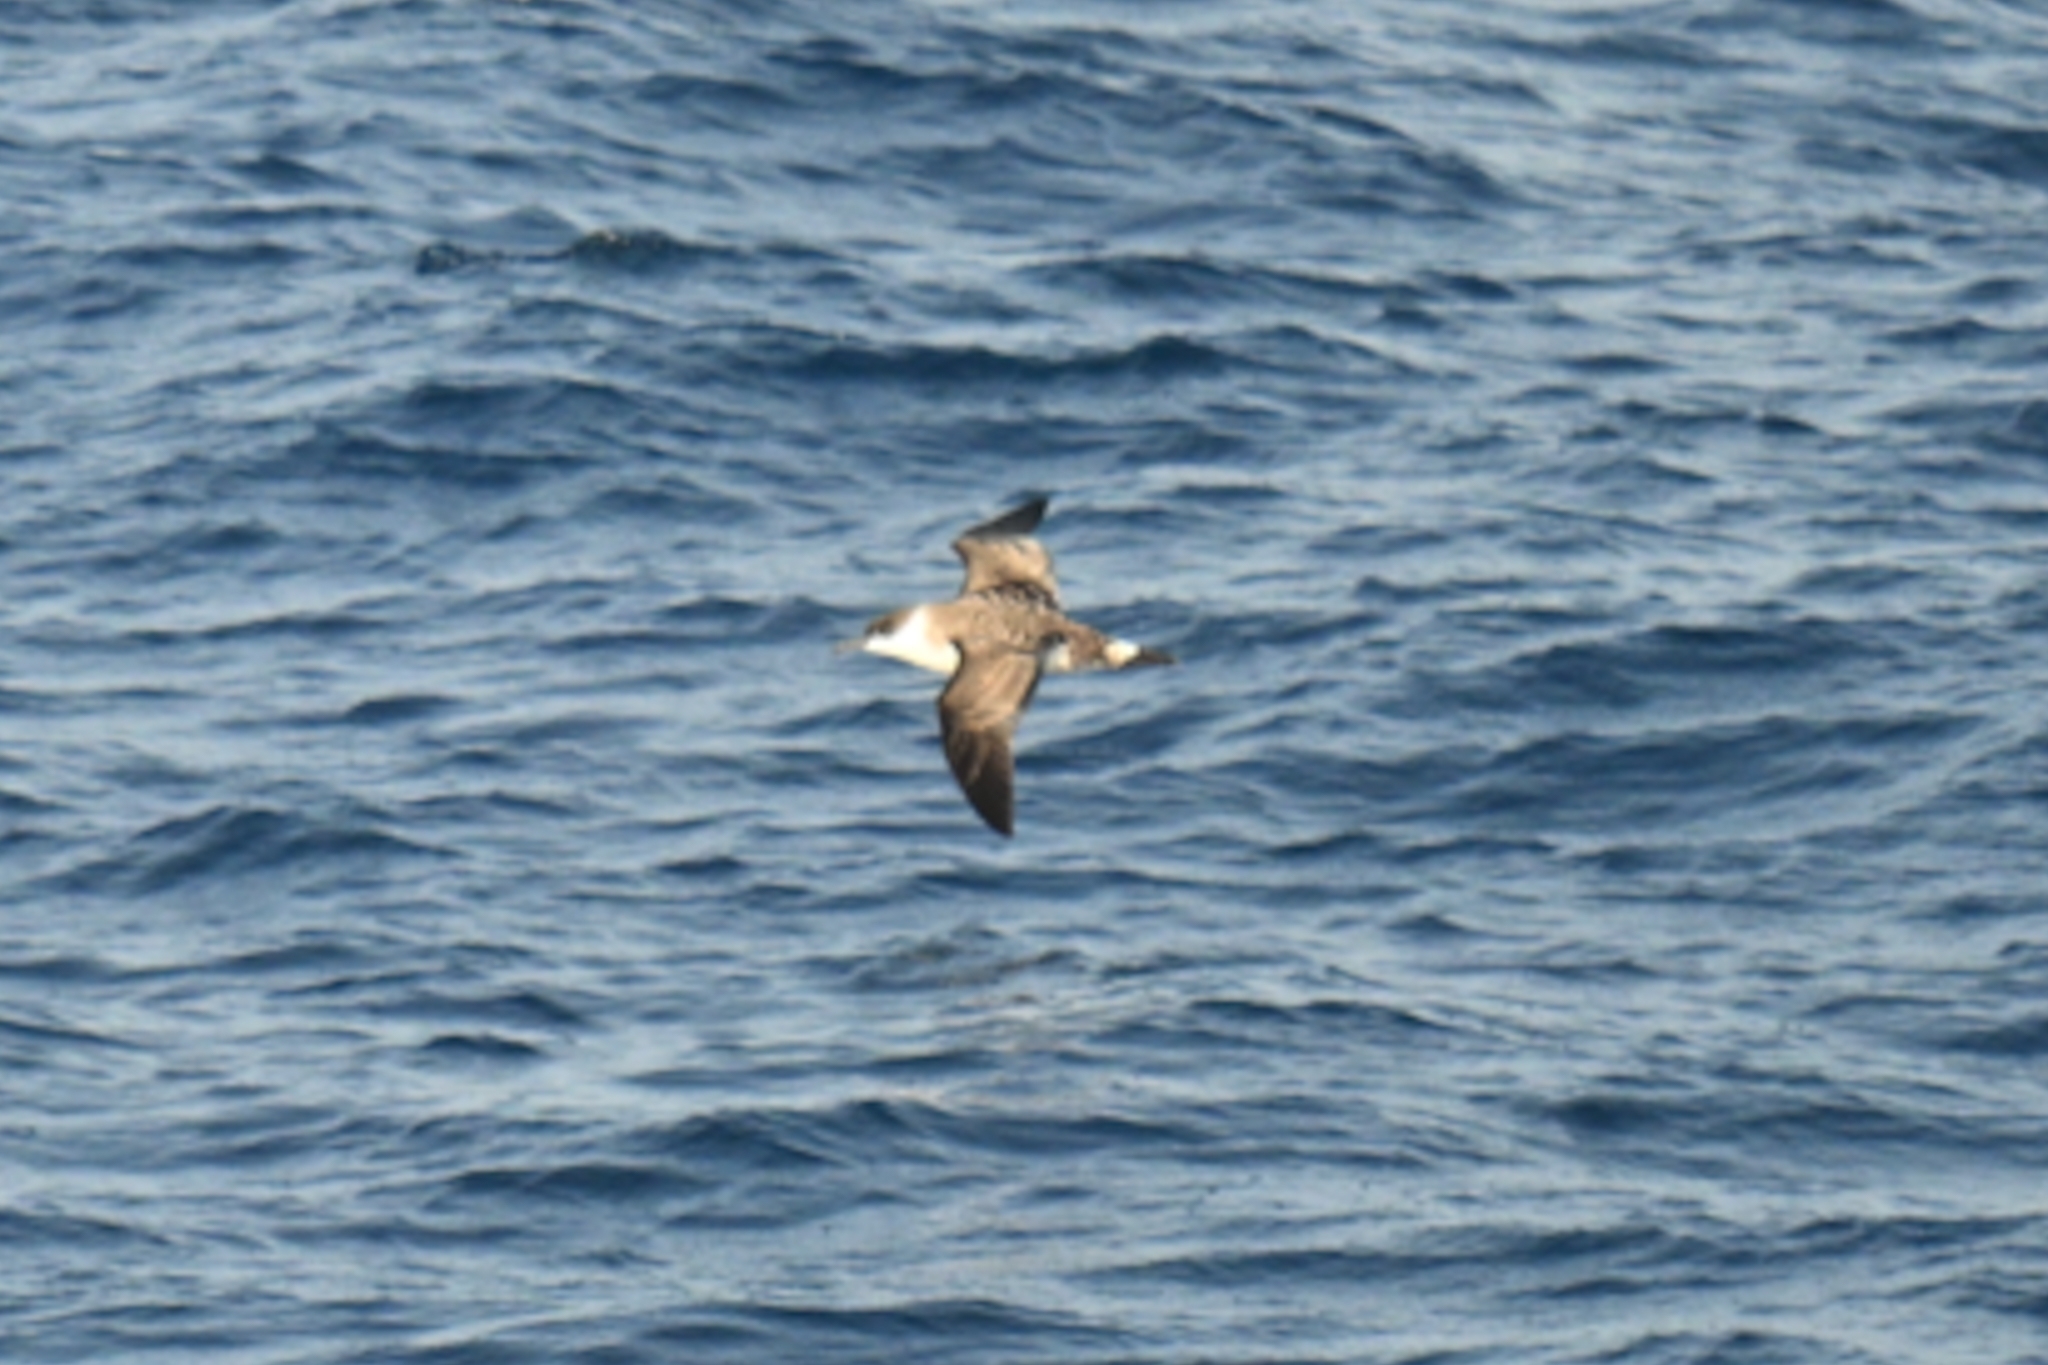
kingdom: Animalia
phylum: Chordata
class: Aves
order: Procellariiformes
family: Procellariidae
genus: Puffinus
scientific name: Puffinus gravis
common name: Great shearwater
